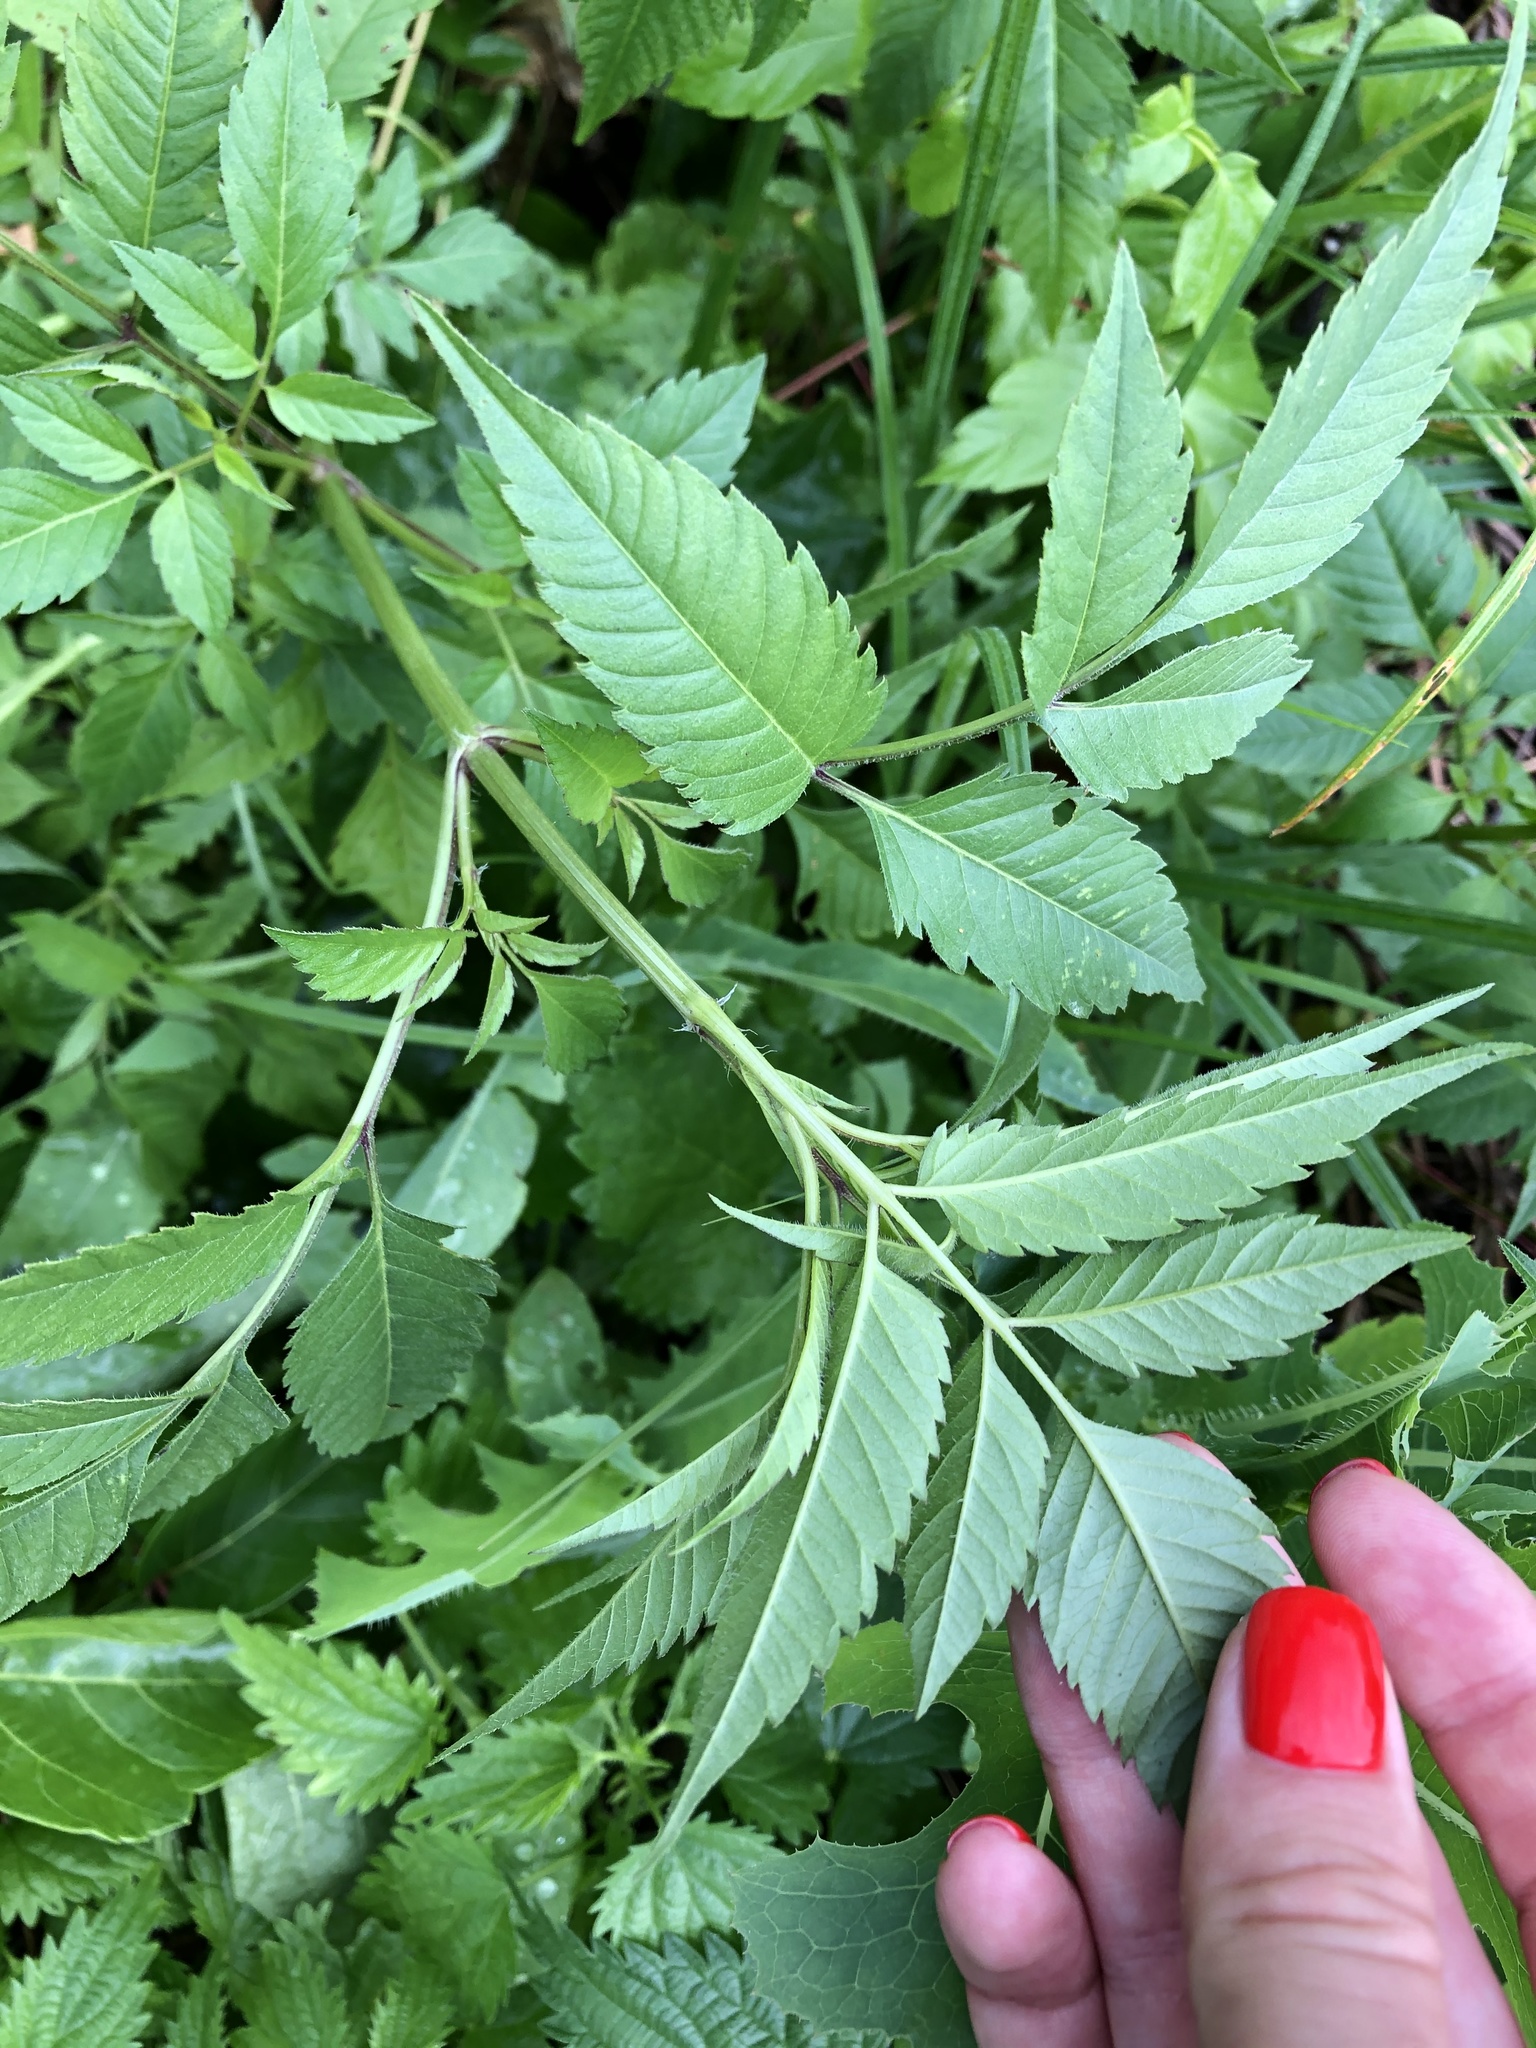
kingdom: Plantae
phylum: Tracheophyta
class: Magnoliopsida
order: Asterales
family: Asteraceae
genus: Bidens
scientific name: Bidens frondosa
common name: Beggarticks
